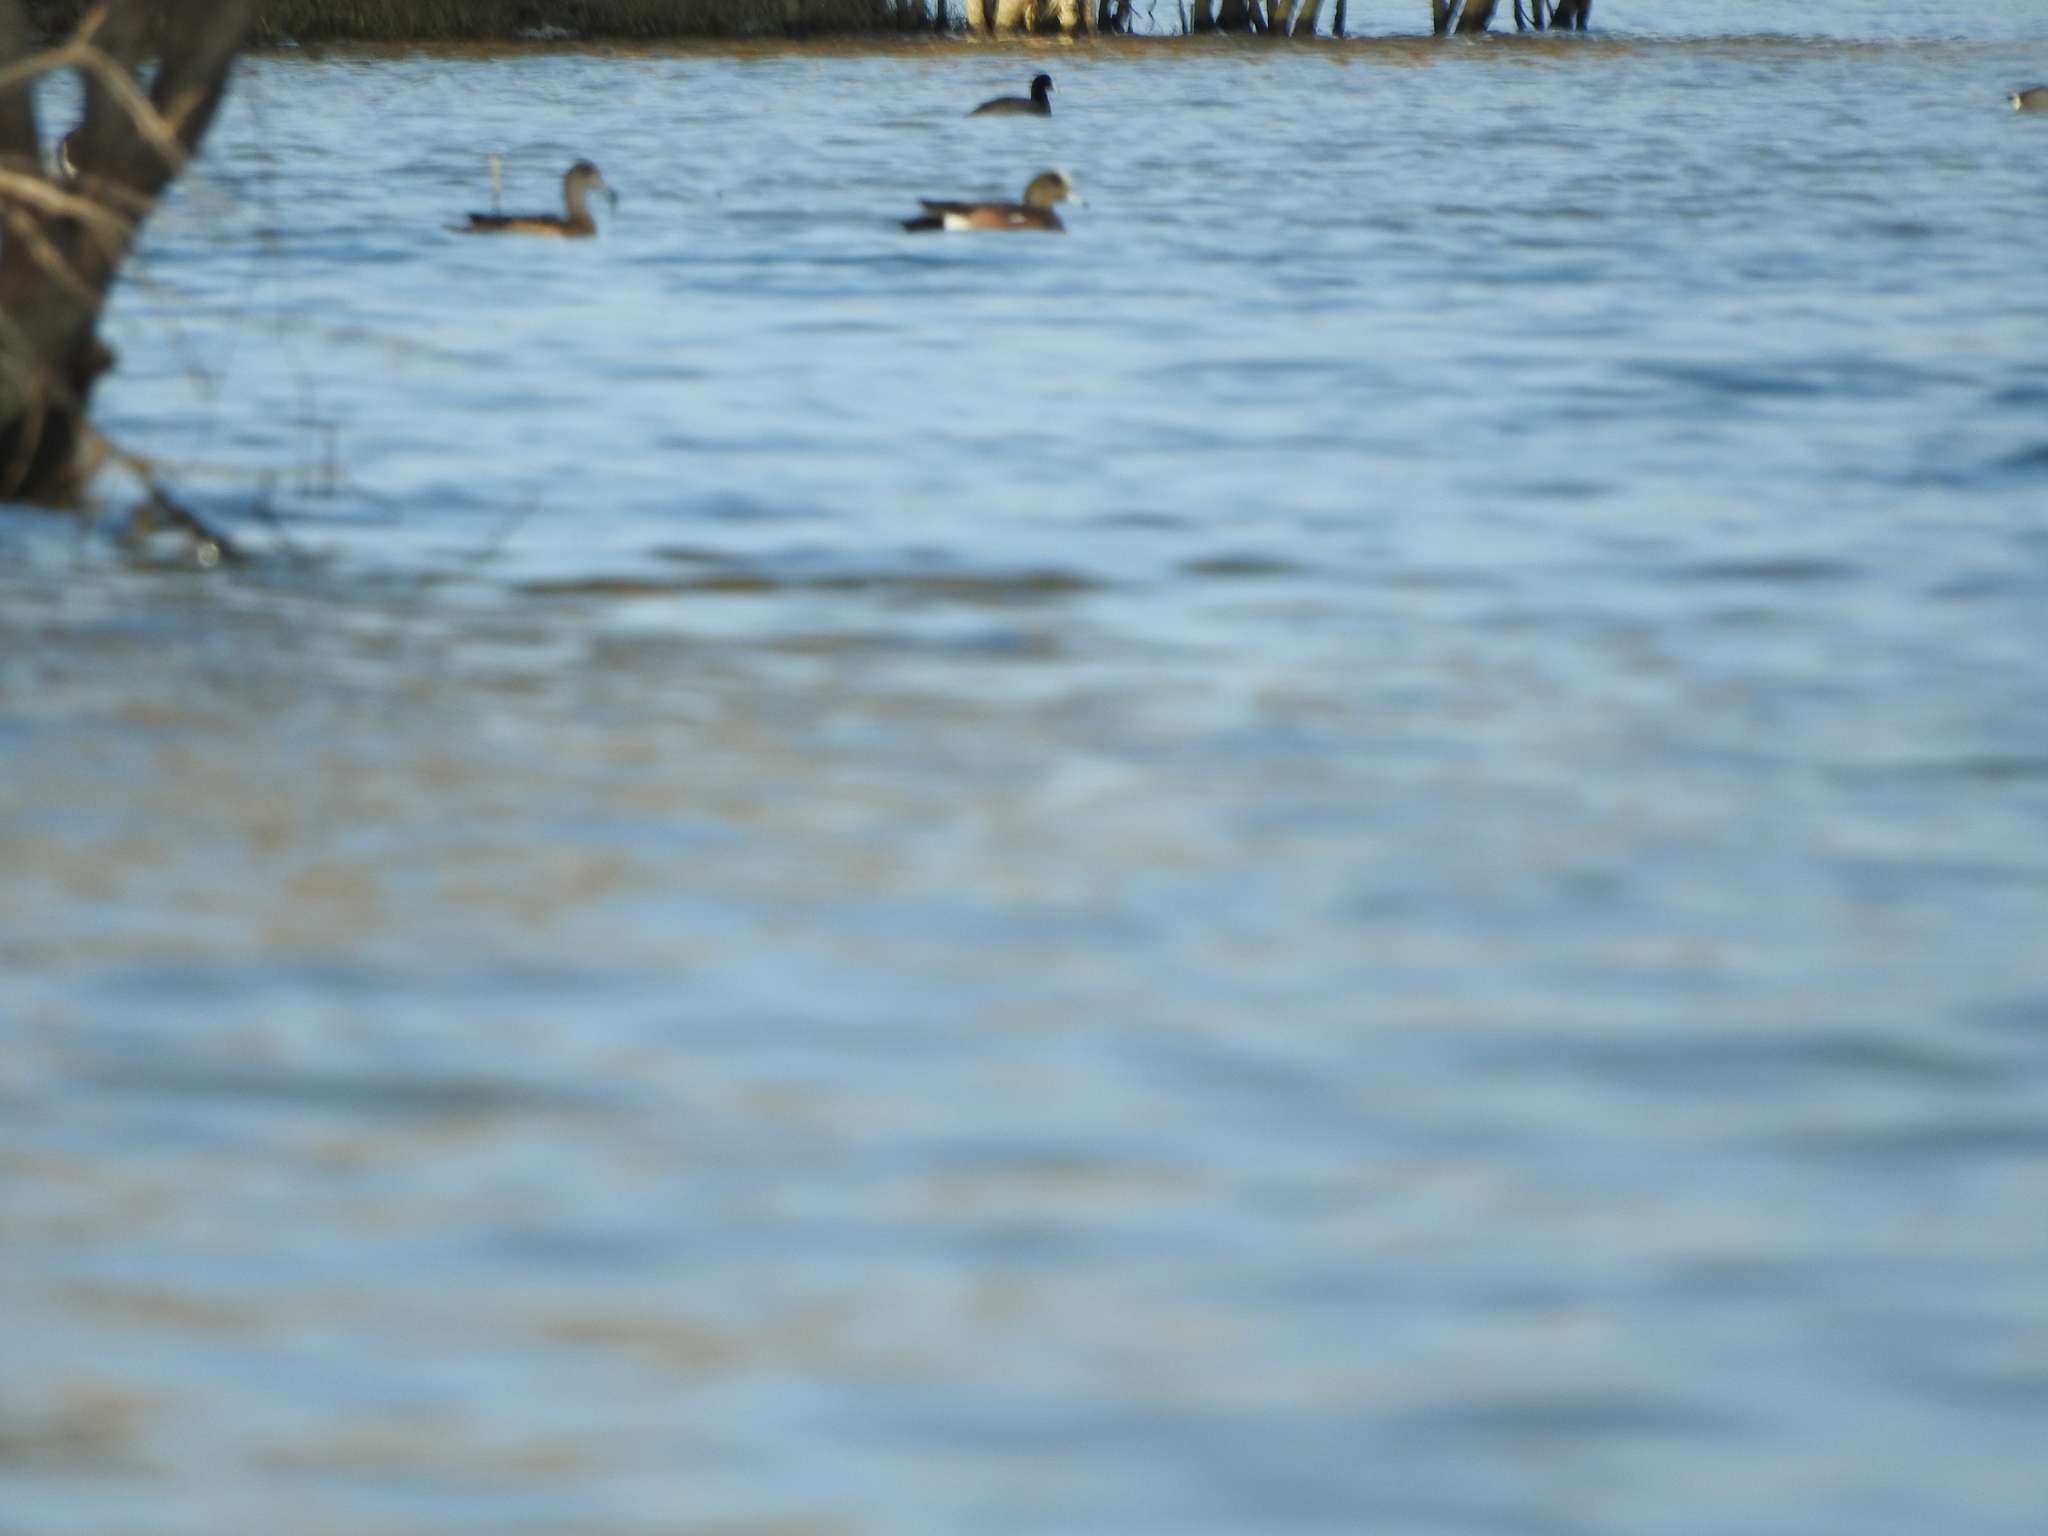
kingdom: Animalia
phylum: Chordata
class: Aves
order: Anseriformes
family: Anatidae
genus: Mareca
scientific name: Mareca americana
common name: American wigeon
